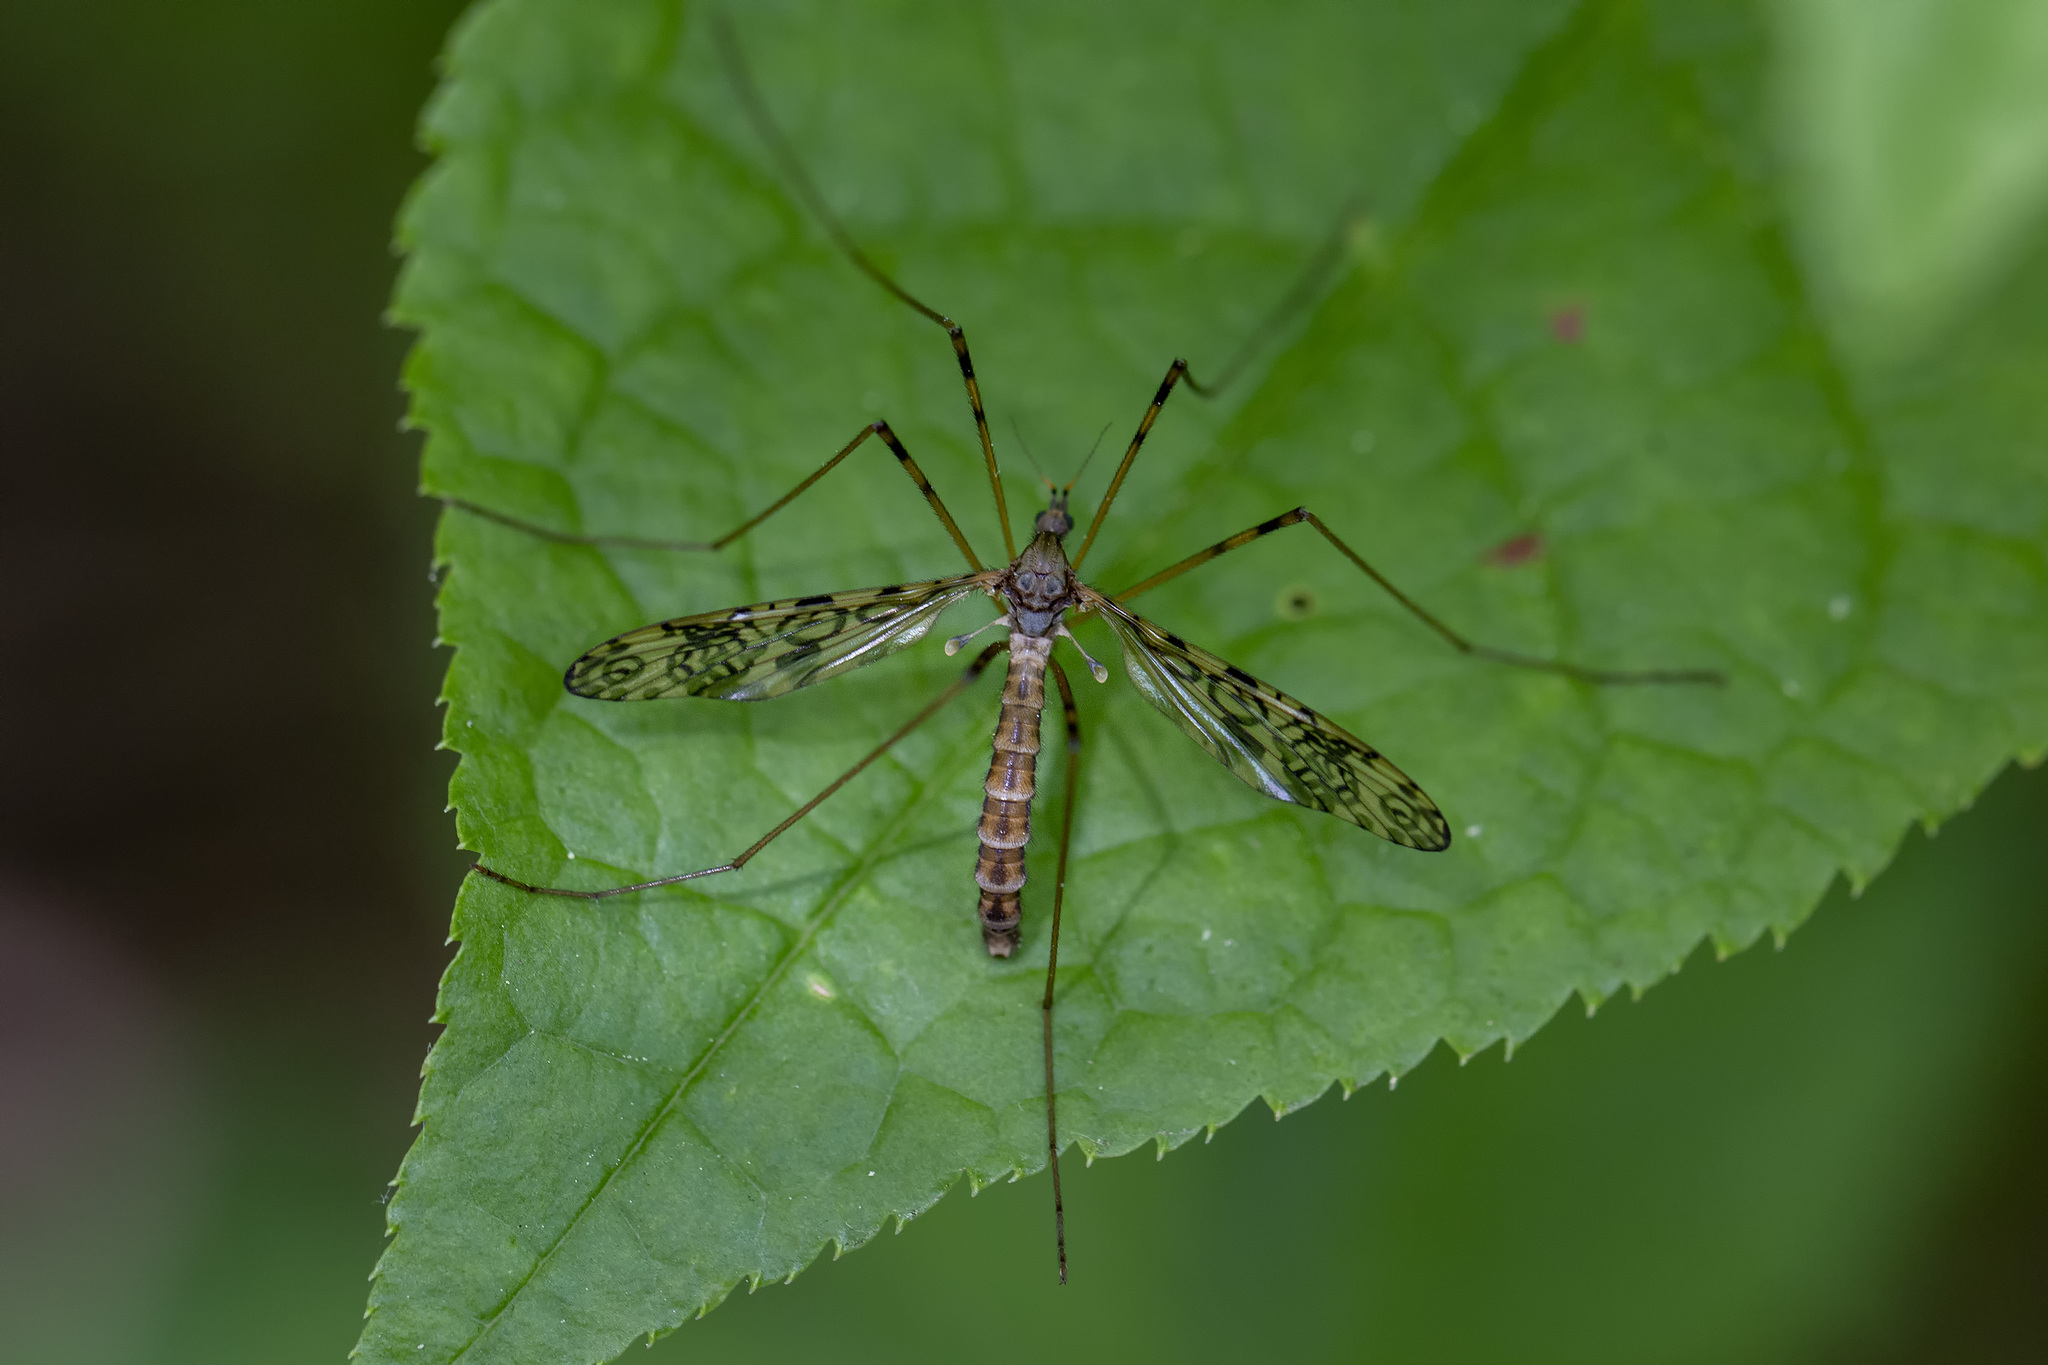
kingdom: Animalia
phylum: Arthropoda
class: Insecta
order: Diptera
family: Limoniidae
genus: Epiphragma
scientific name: Epiphragma ocellare
